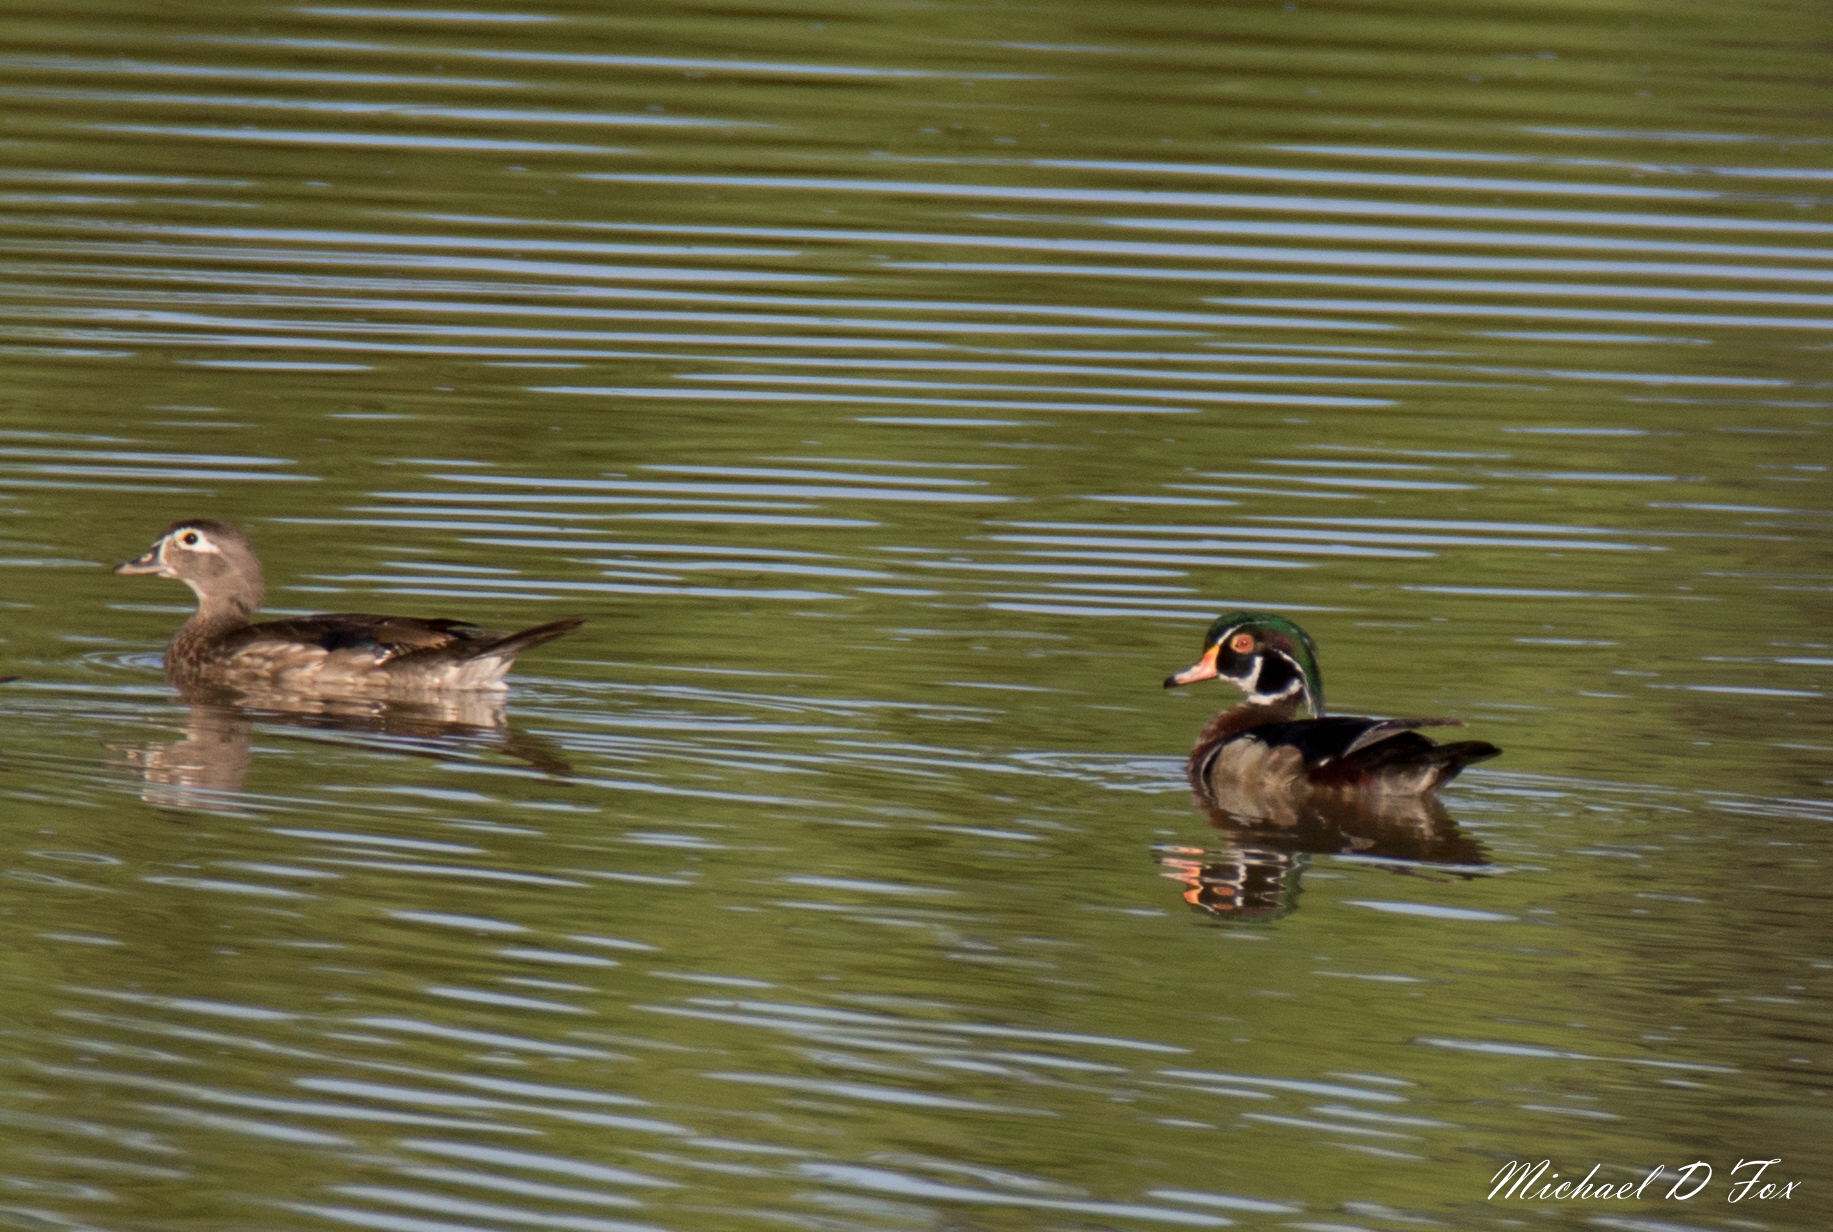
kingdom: Animalia
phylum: Chordata
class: Aves
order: Anseriformes
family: Anatidae
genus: Aix
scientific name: Aix sponsa
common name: Wood duck
